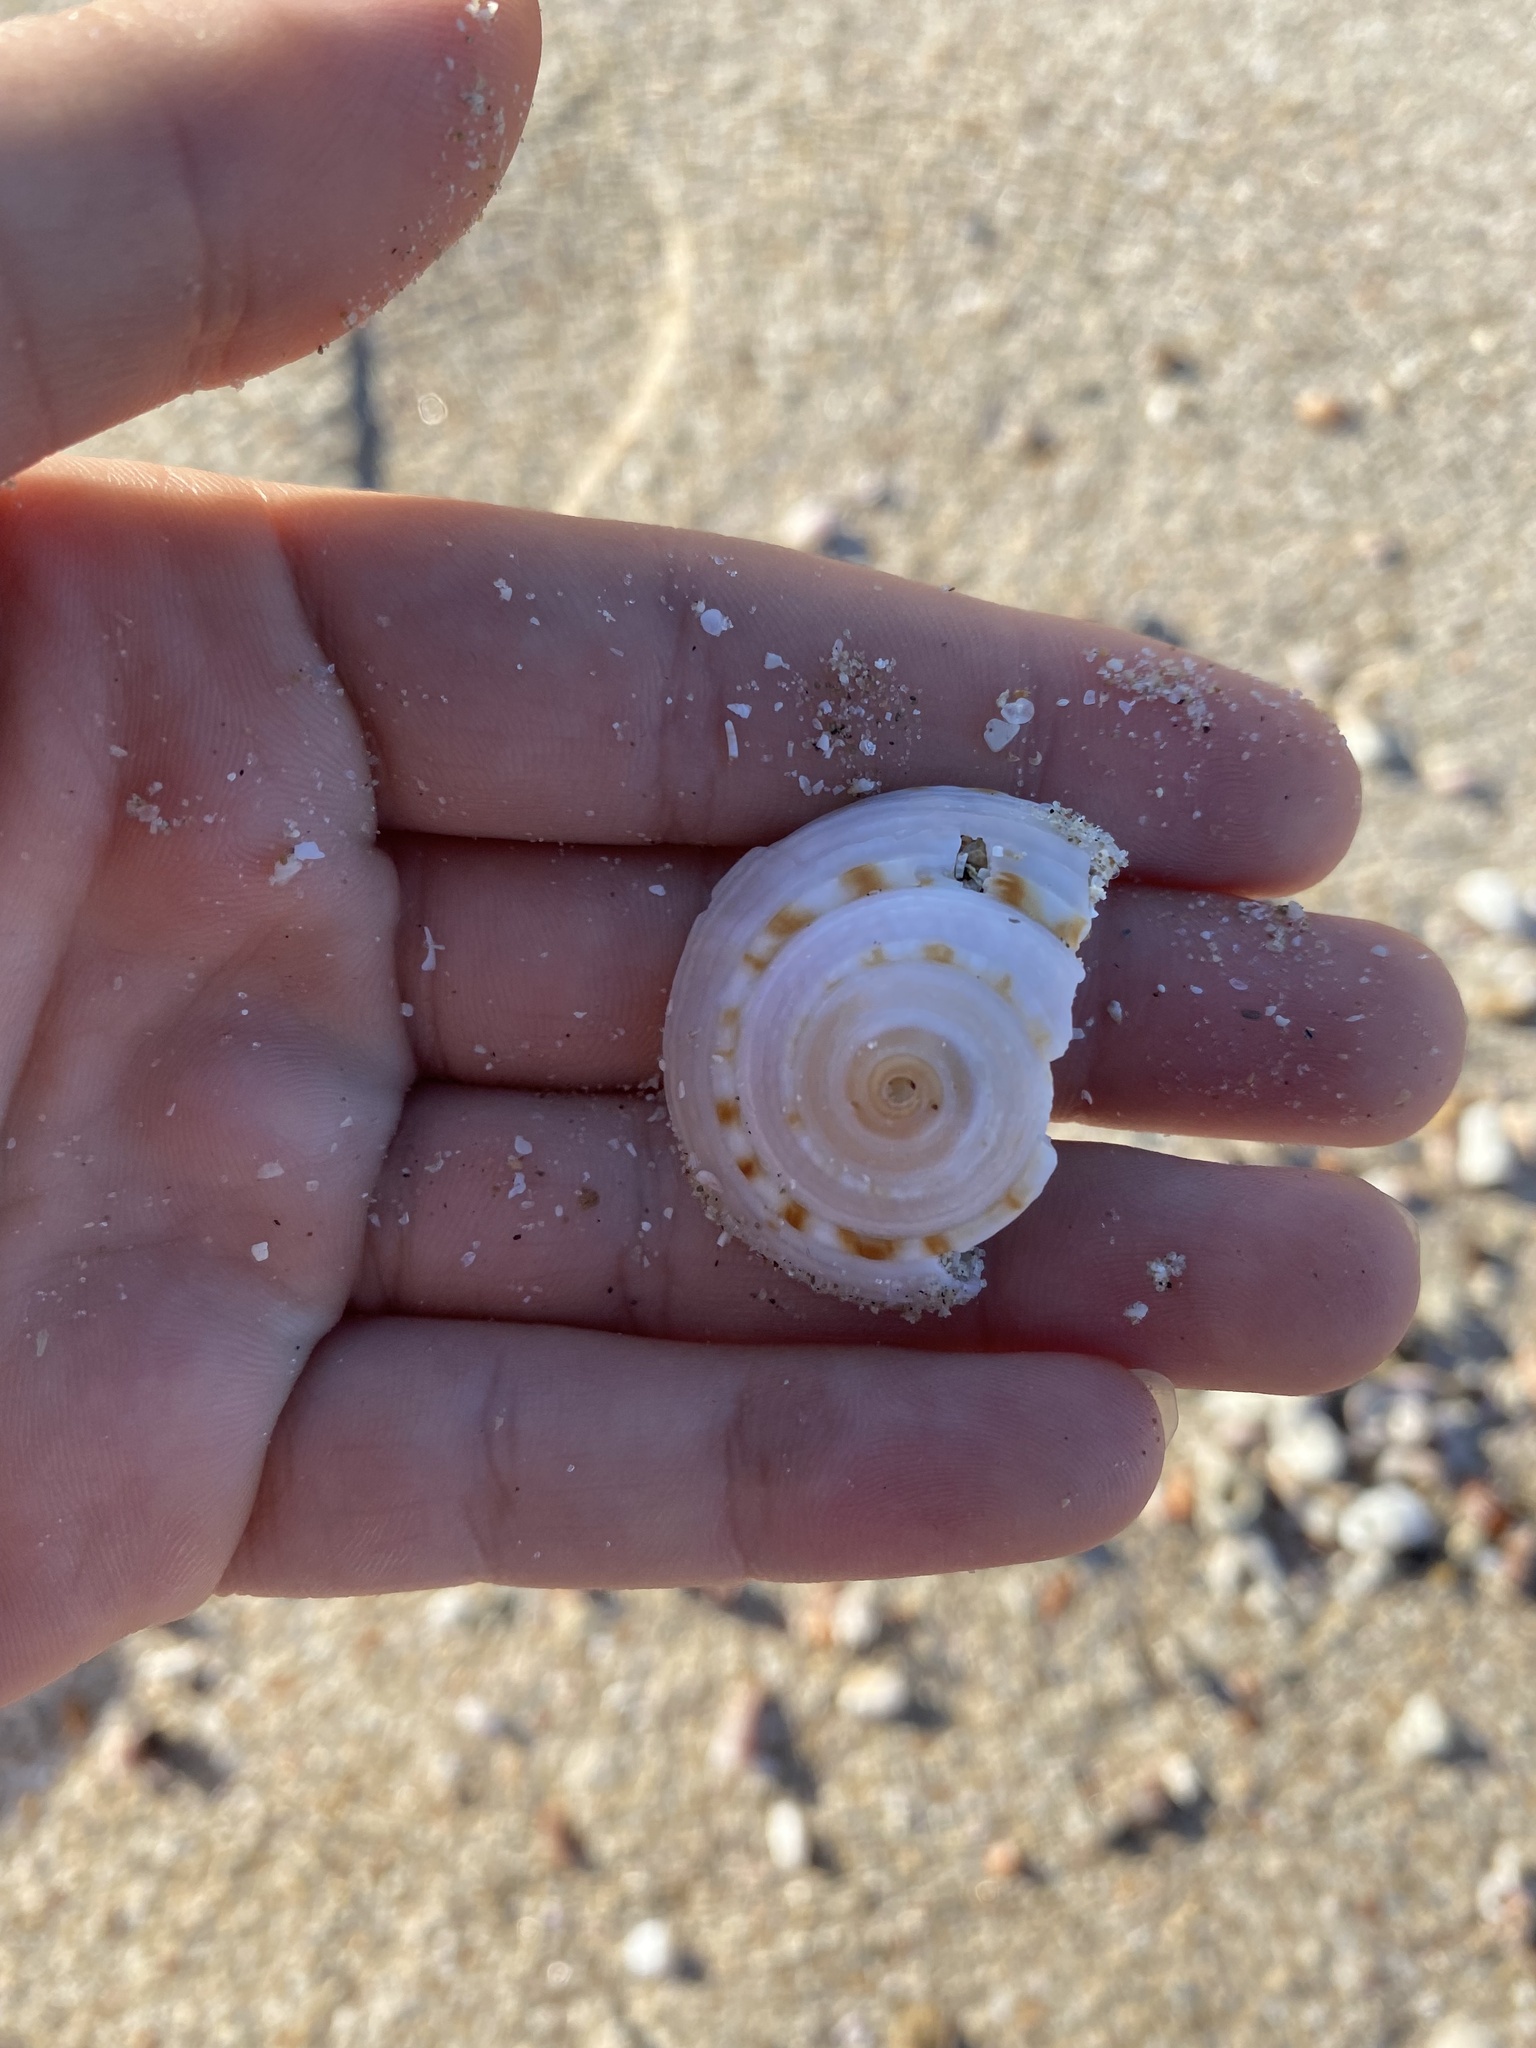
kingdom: Animalia
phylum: Mollusca
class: Gastropoda
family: Architectonicidae
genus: Architectonica
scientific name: Architectonica nobilis
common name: Common sundial
